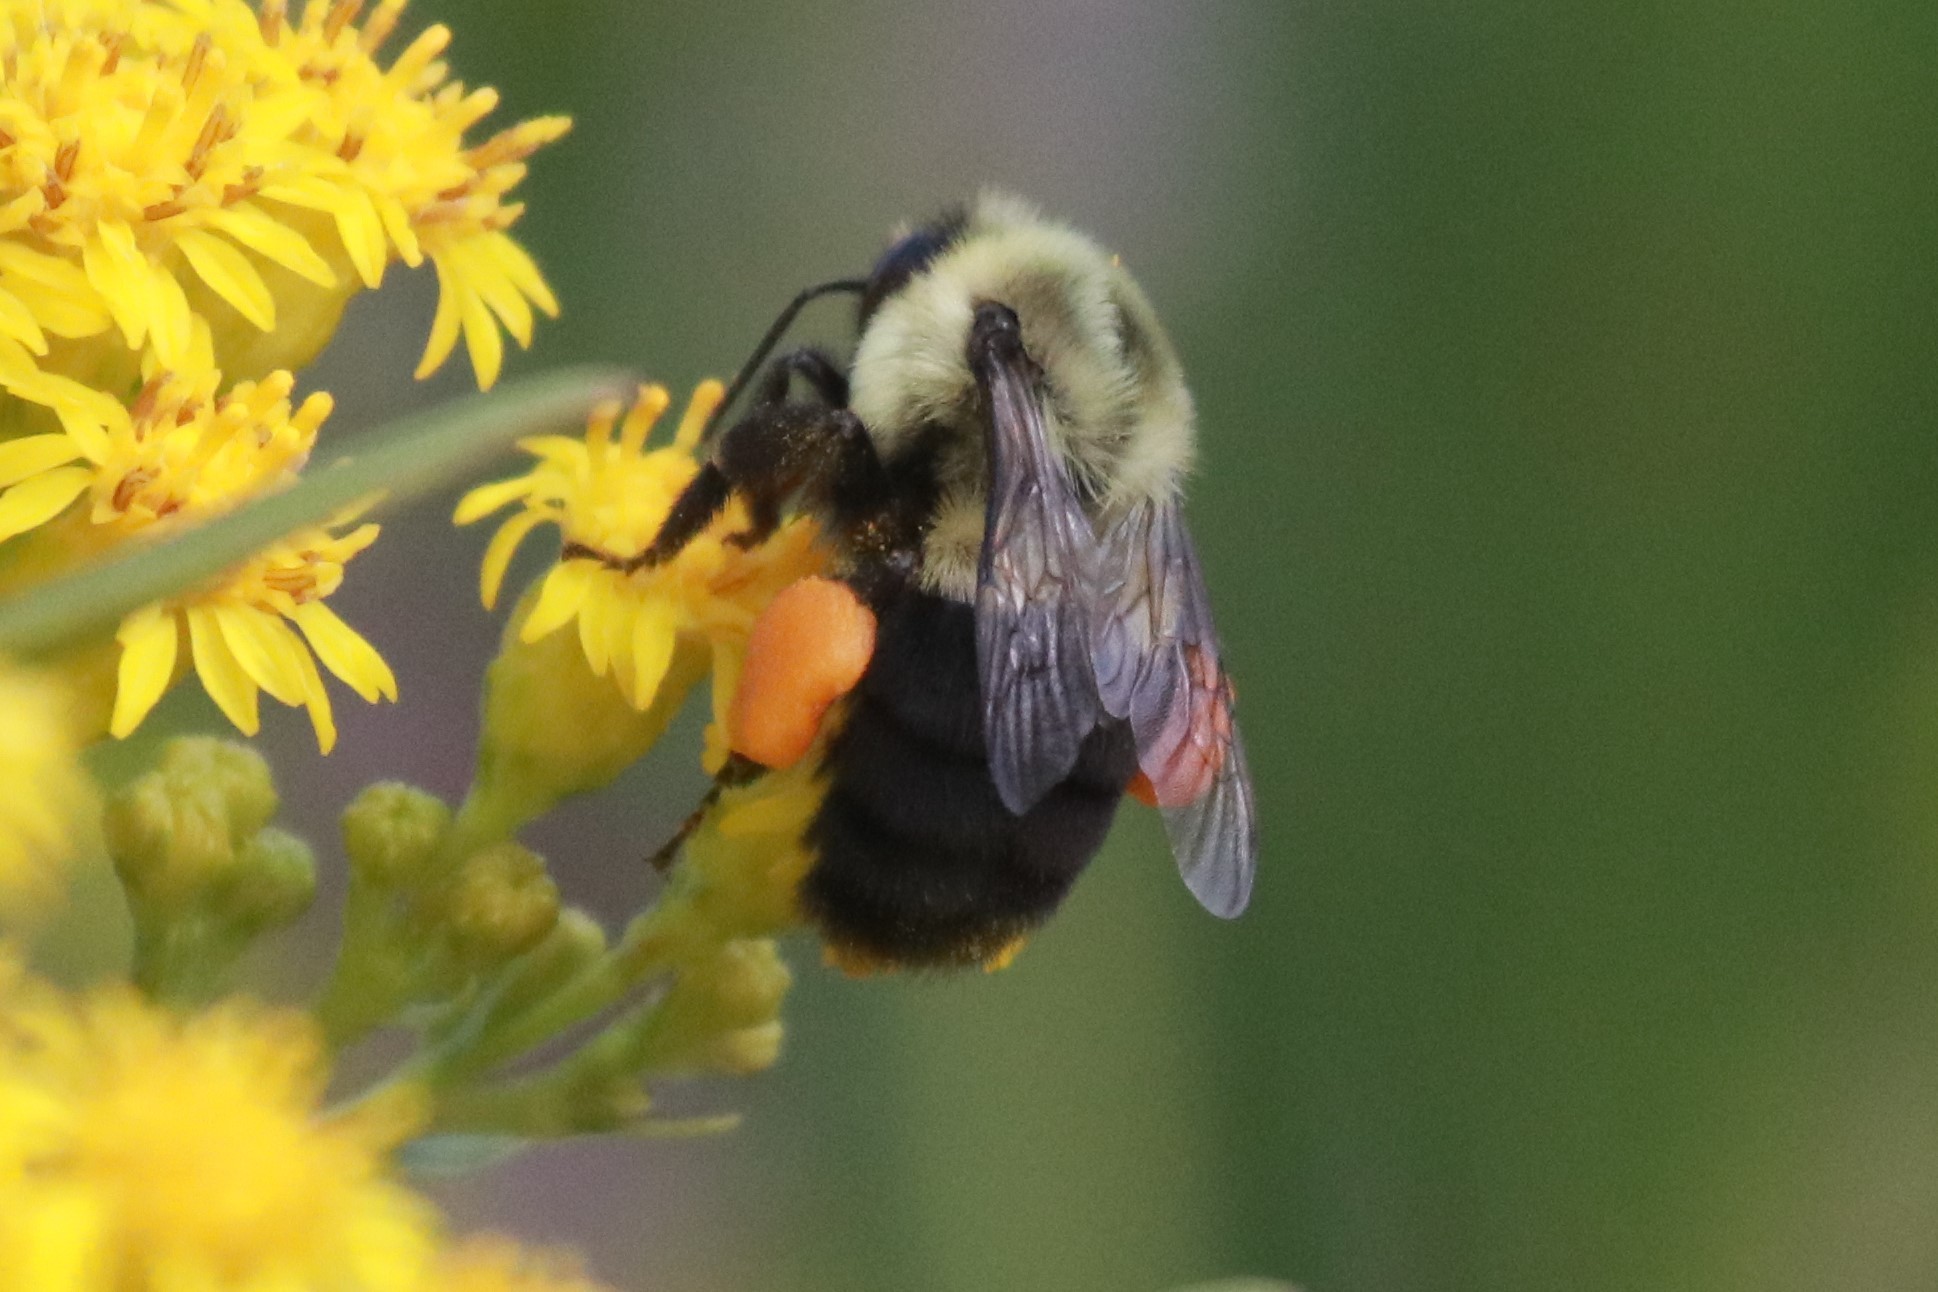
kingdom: Animalia
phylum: Arthropoda
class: Insecta
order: Hymenoptera
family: Apidae
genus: Bombus
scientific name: Bombus impatiens
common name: Common eastern bumble bee
